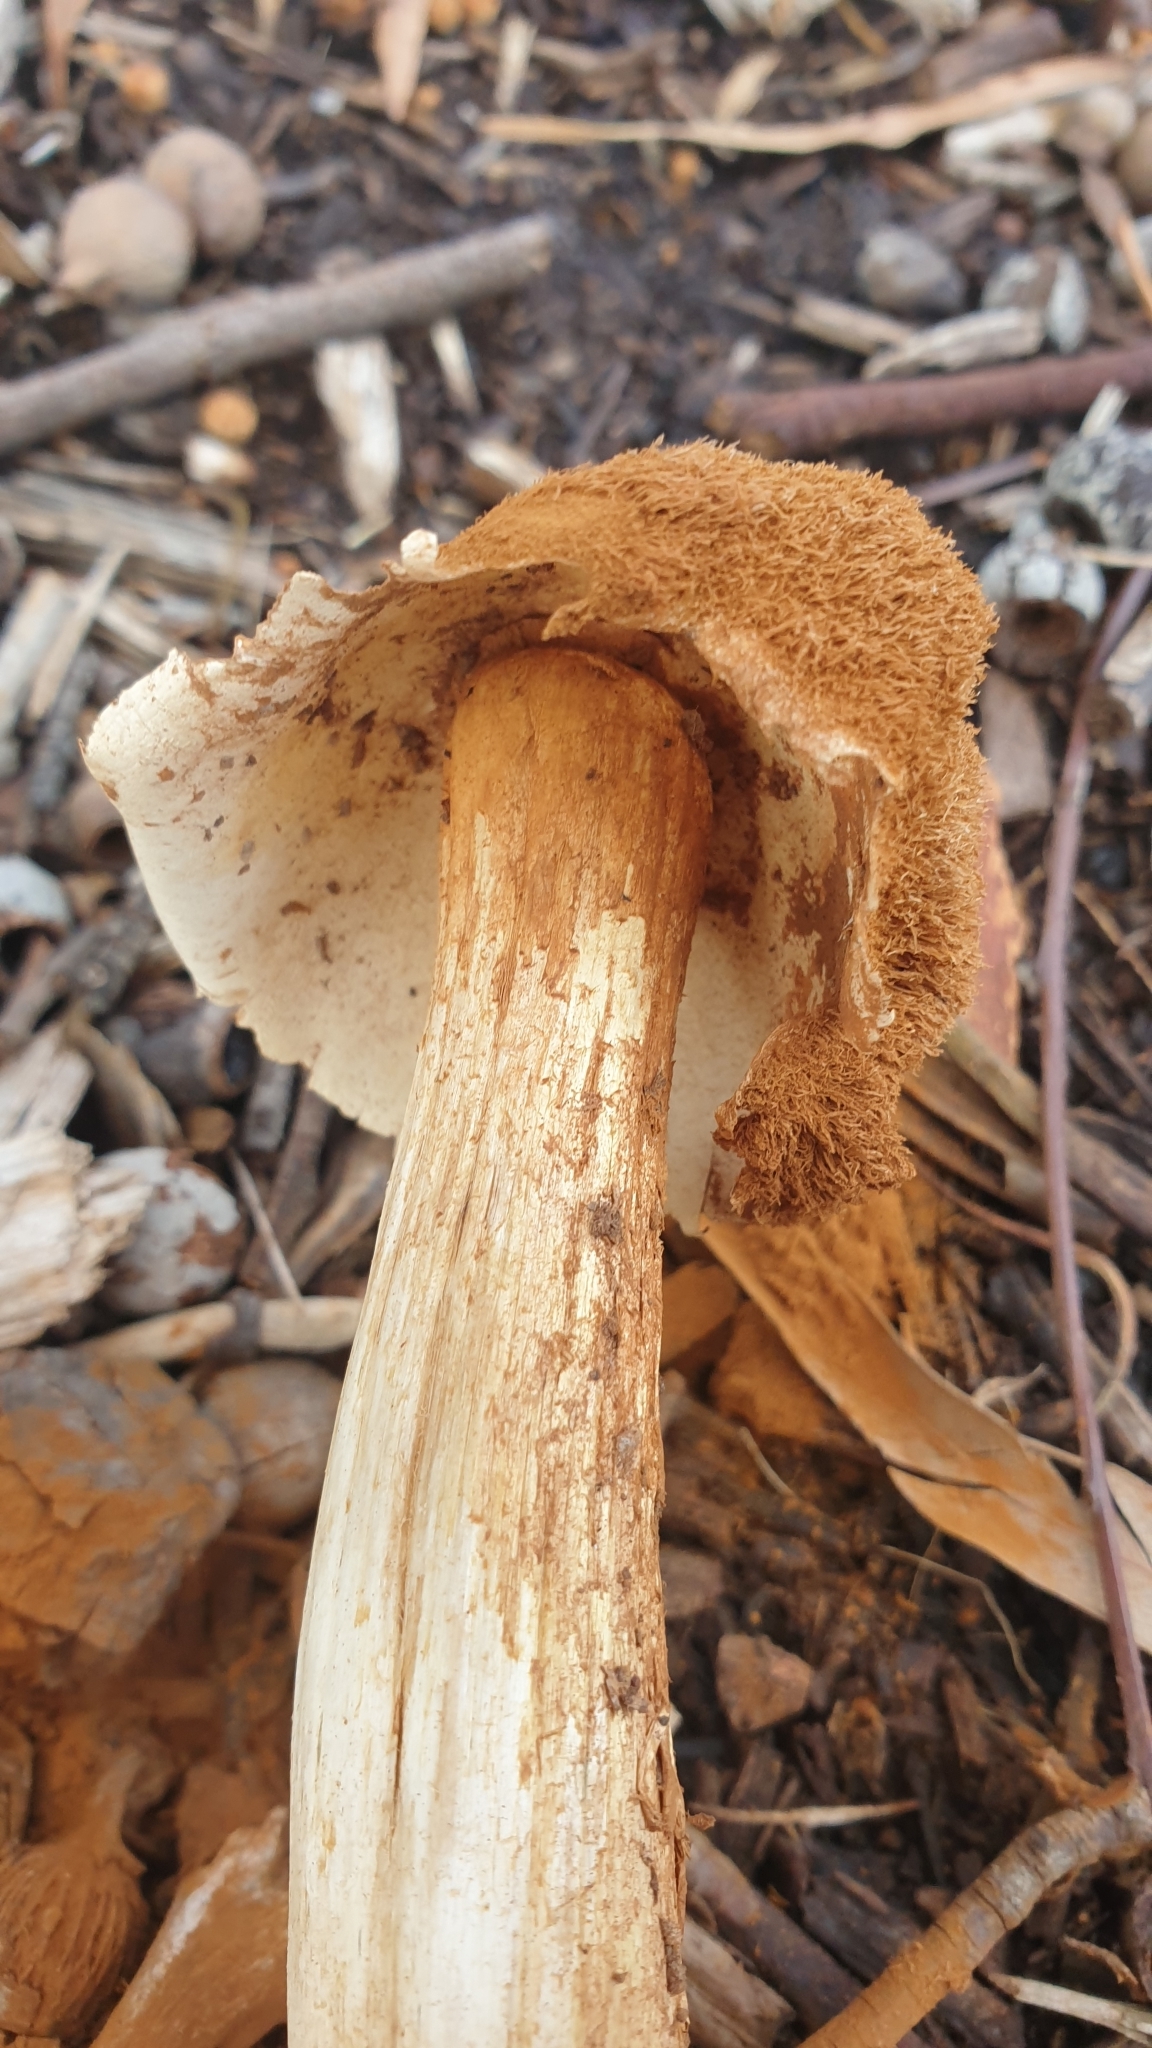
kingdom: Fungi
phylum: Basidiomycota
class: Agaricomycetes
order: Agaricales
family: Agaricaceae
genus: Battarrea
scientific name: Battarrea phalloides
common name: Sandy stiltball
